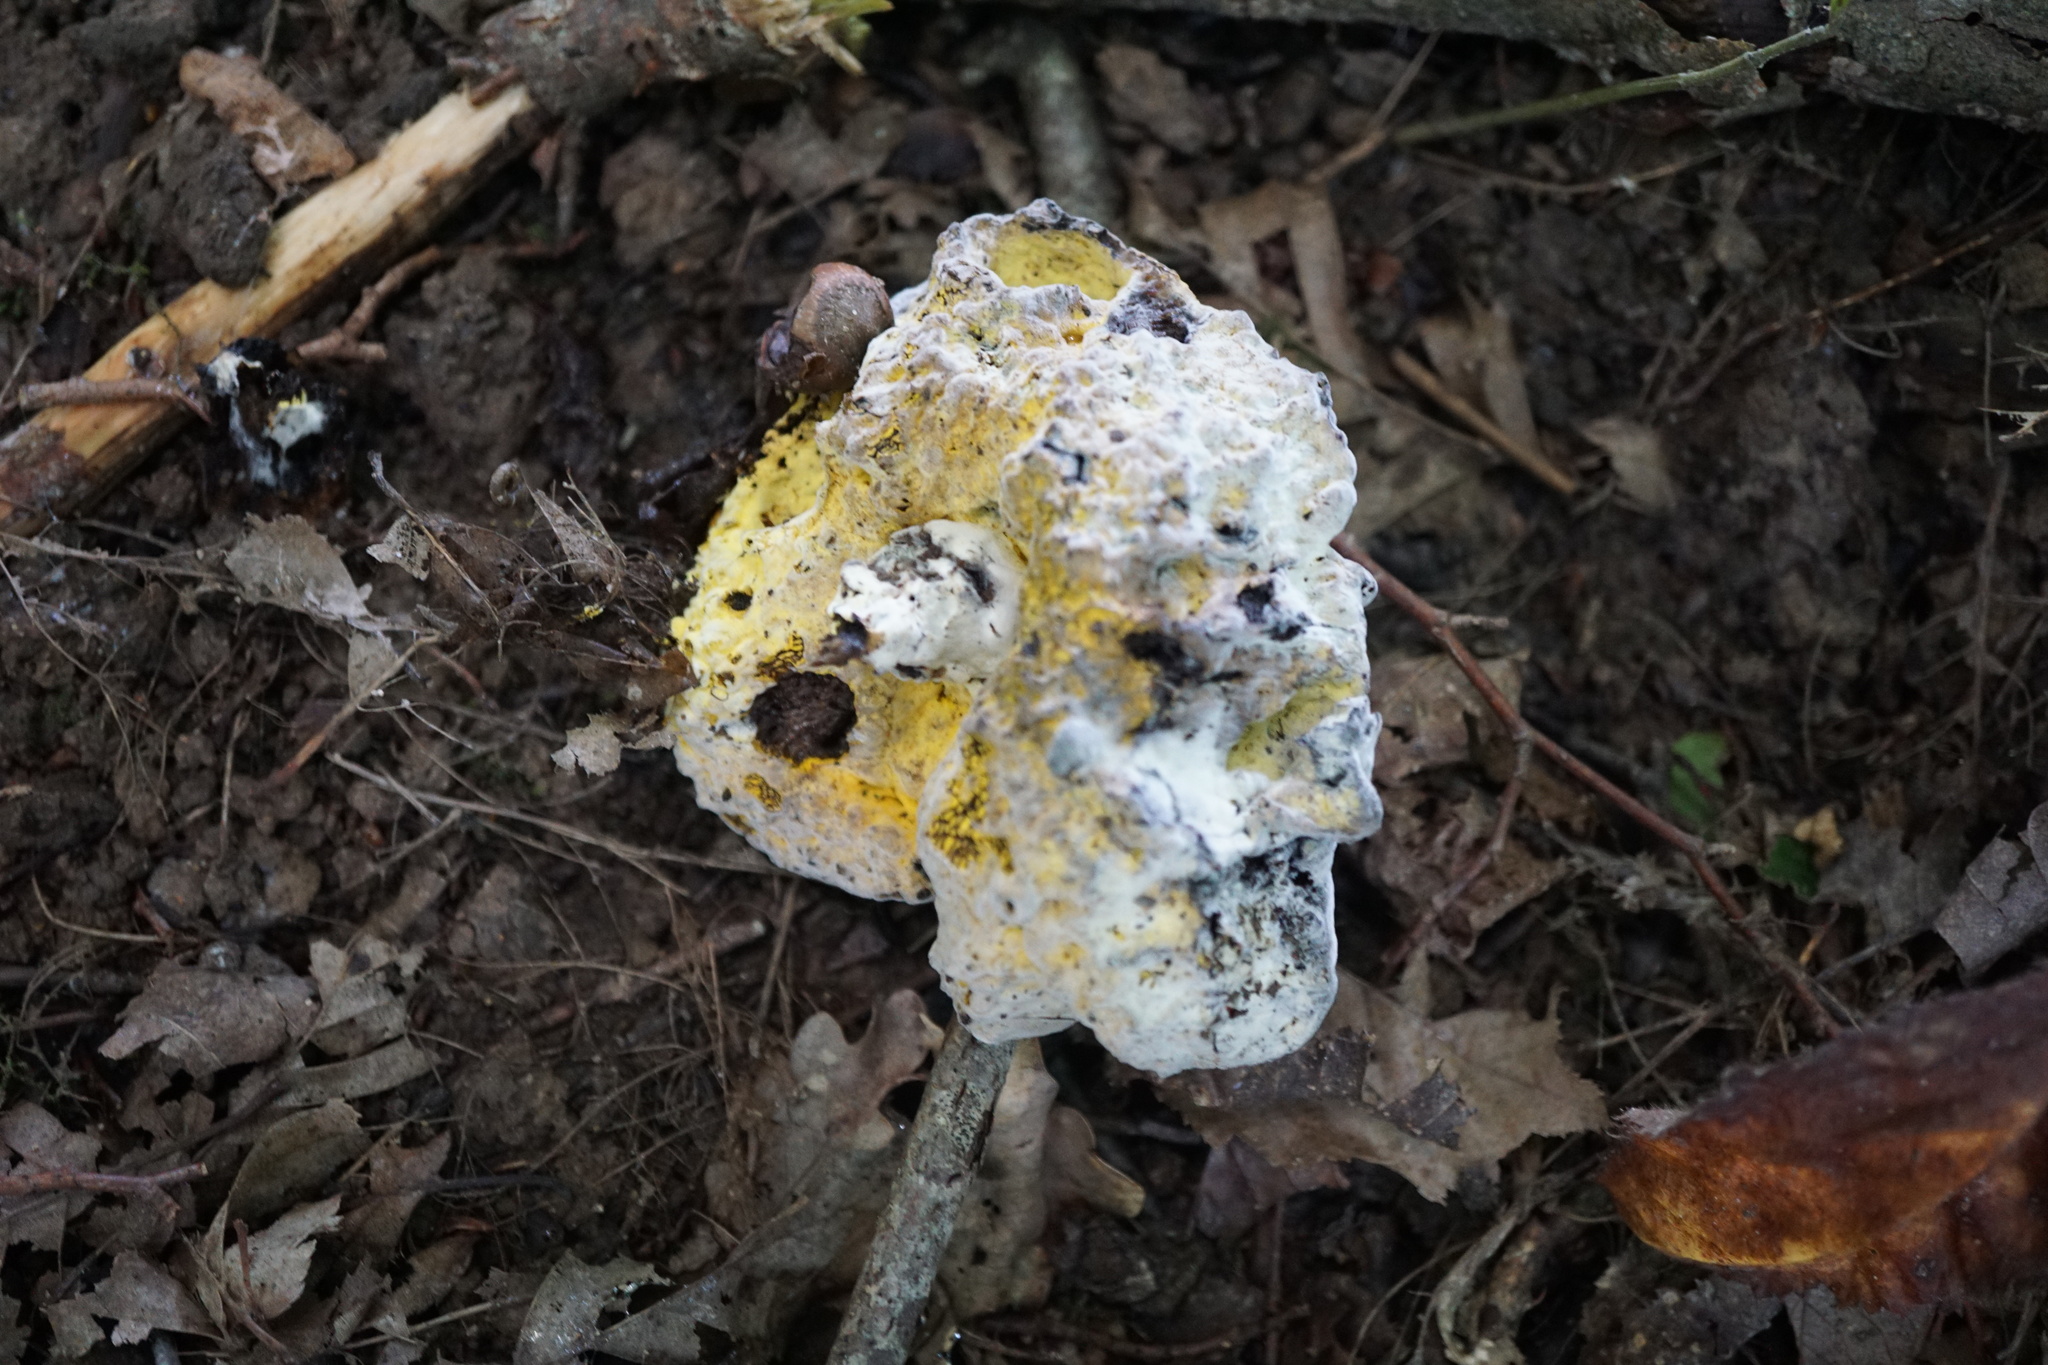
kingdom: Fungi
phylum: Ascomycota
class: Sordariomycetes
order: Hypocreales
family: Hypocreaceae
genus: Hypomyces
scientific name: Hypomyces chrysospermus
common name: Bolete mould
